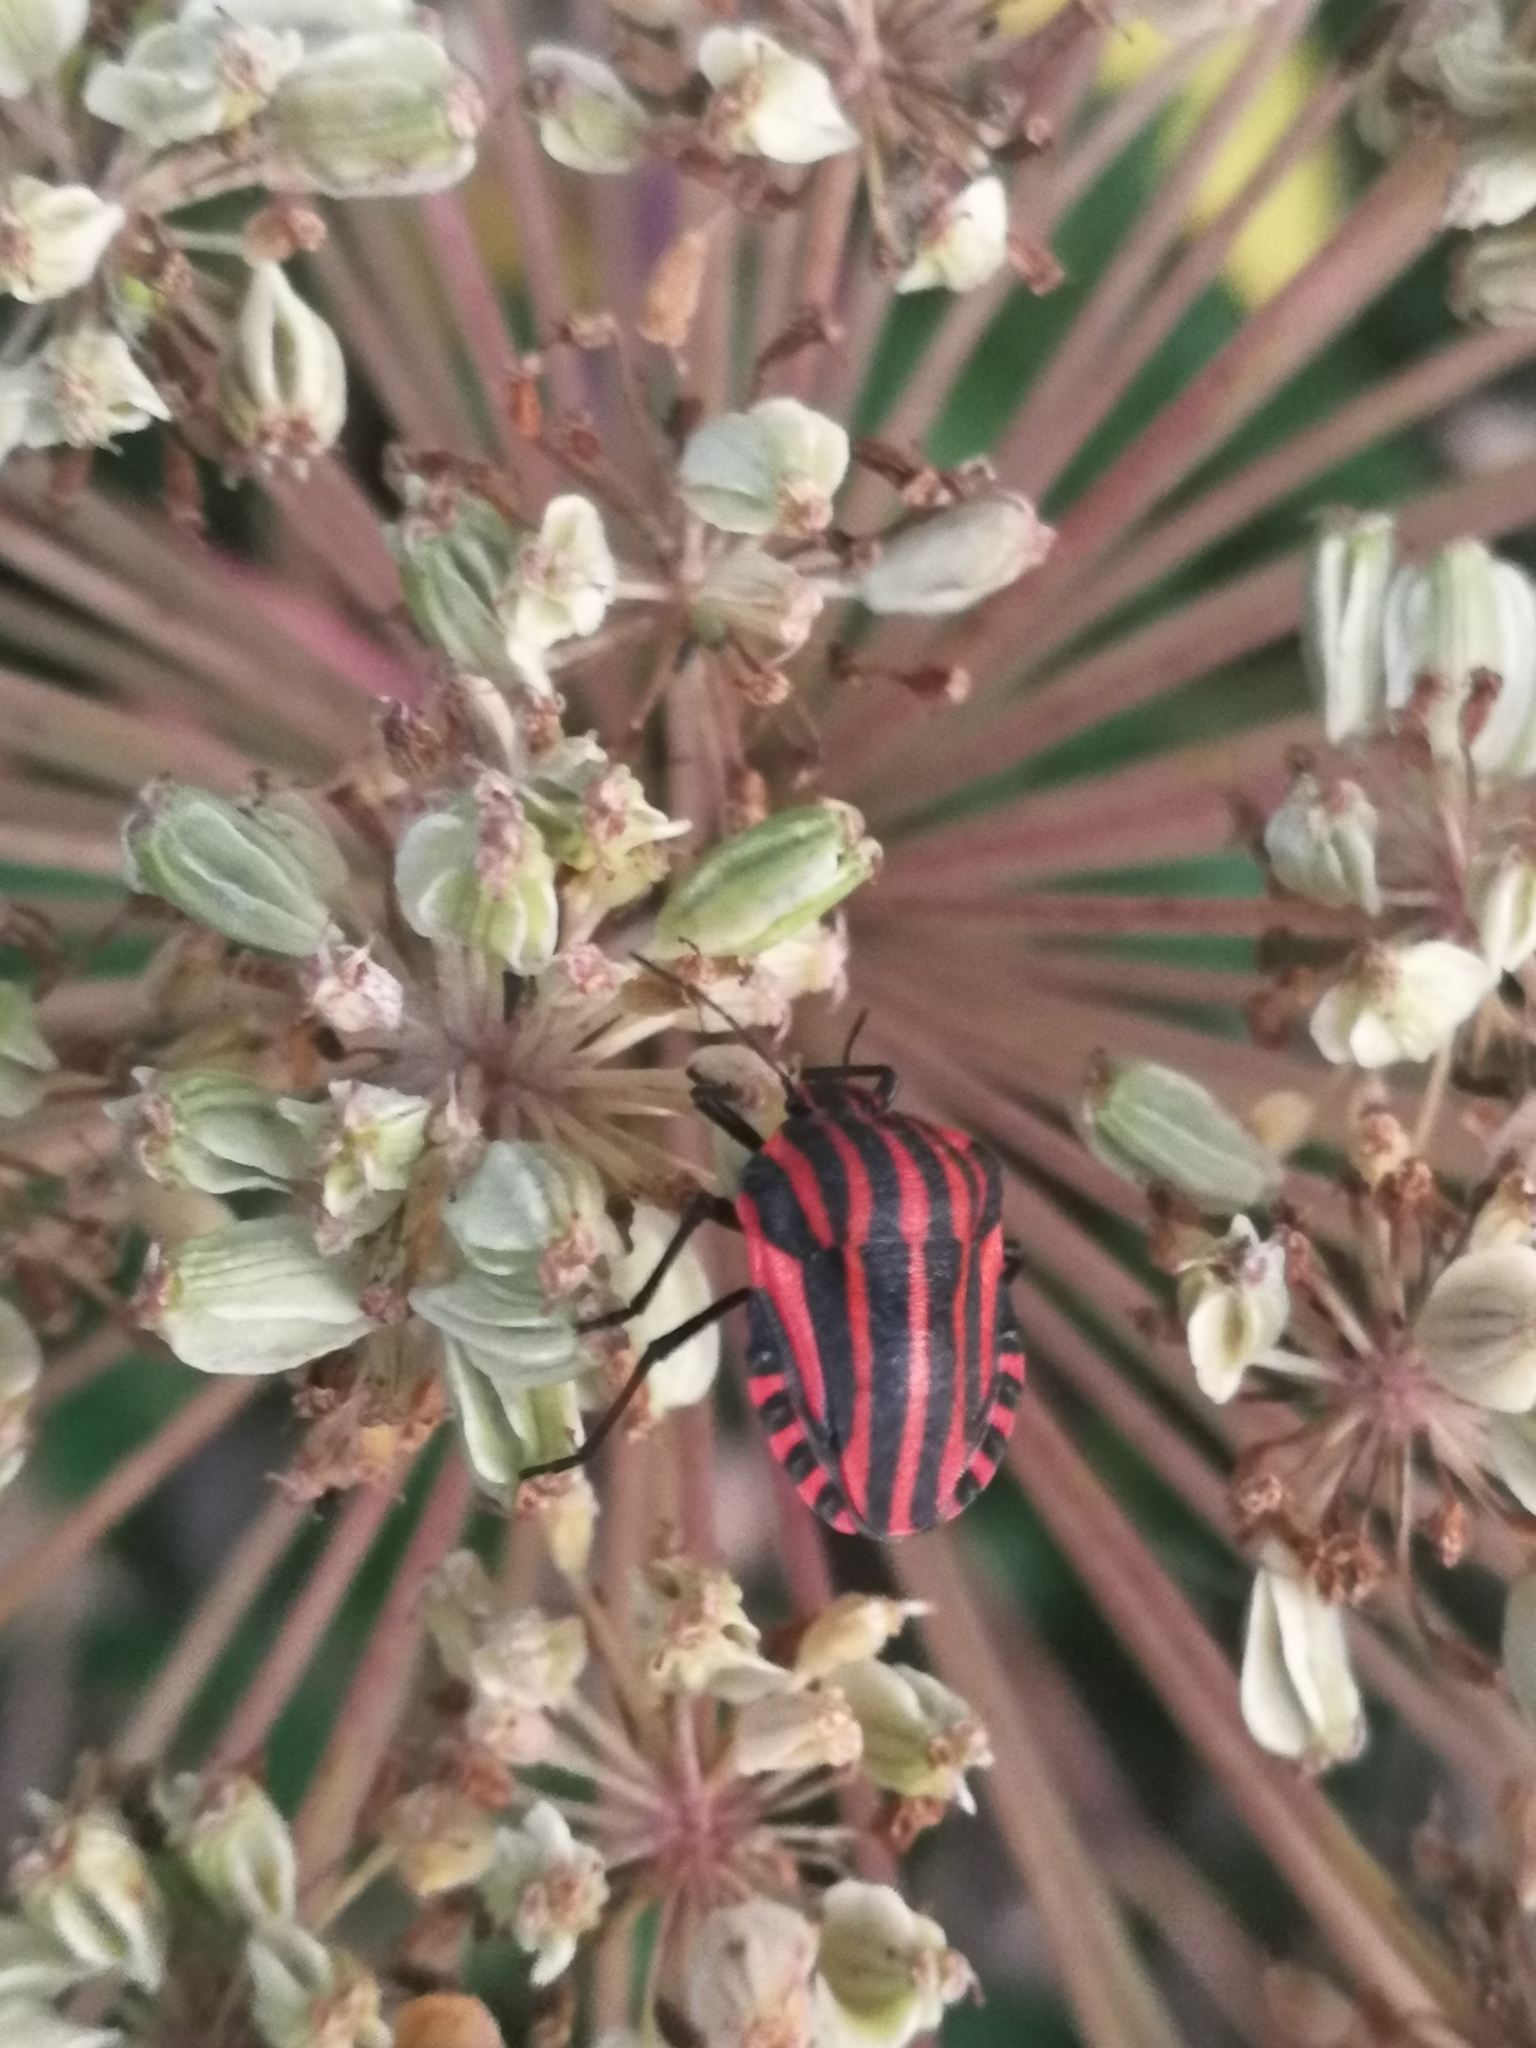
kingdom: Animalia
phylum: Arthropoda
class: Insecta
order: Hemiptera
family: Pentatomidae
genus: Graphosoma
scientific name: Graphosoma italicum
